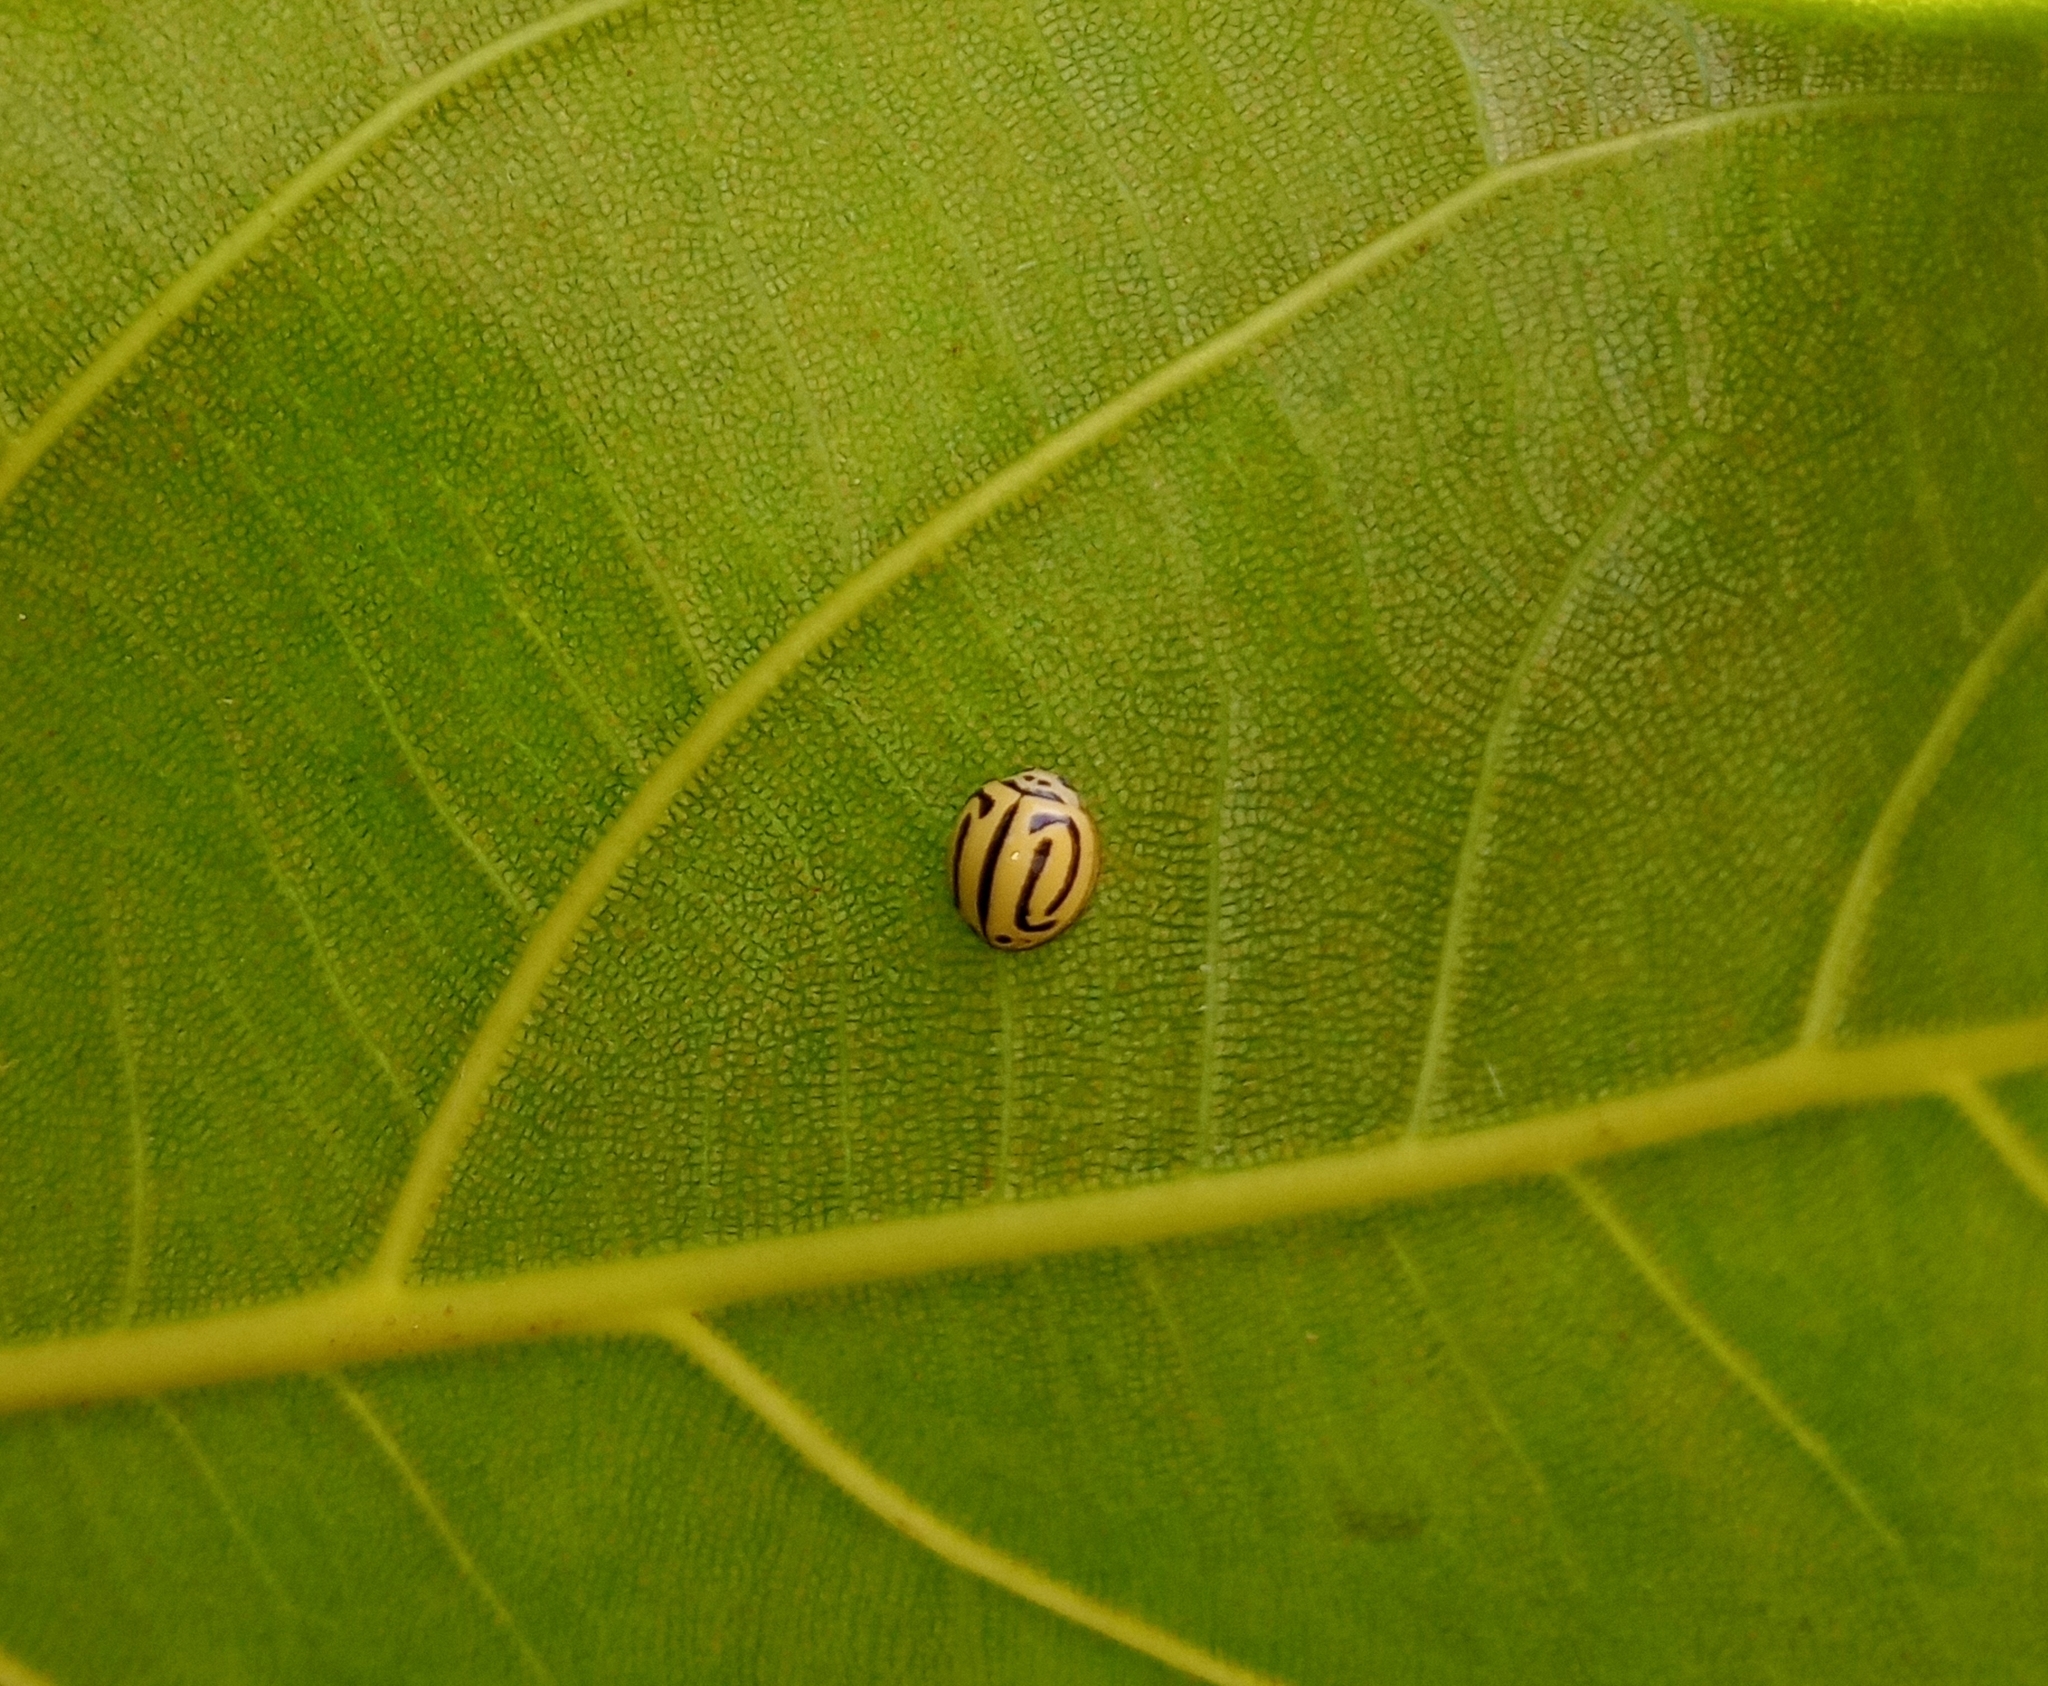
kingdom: Animalia
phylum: Arthropoda
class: Insecta
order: Coleoptera
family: Coccinellidae
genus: Anegleis
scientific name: Anegleis cardoni
